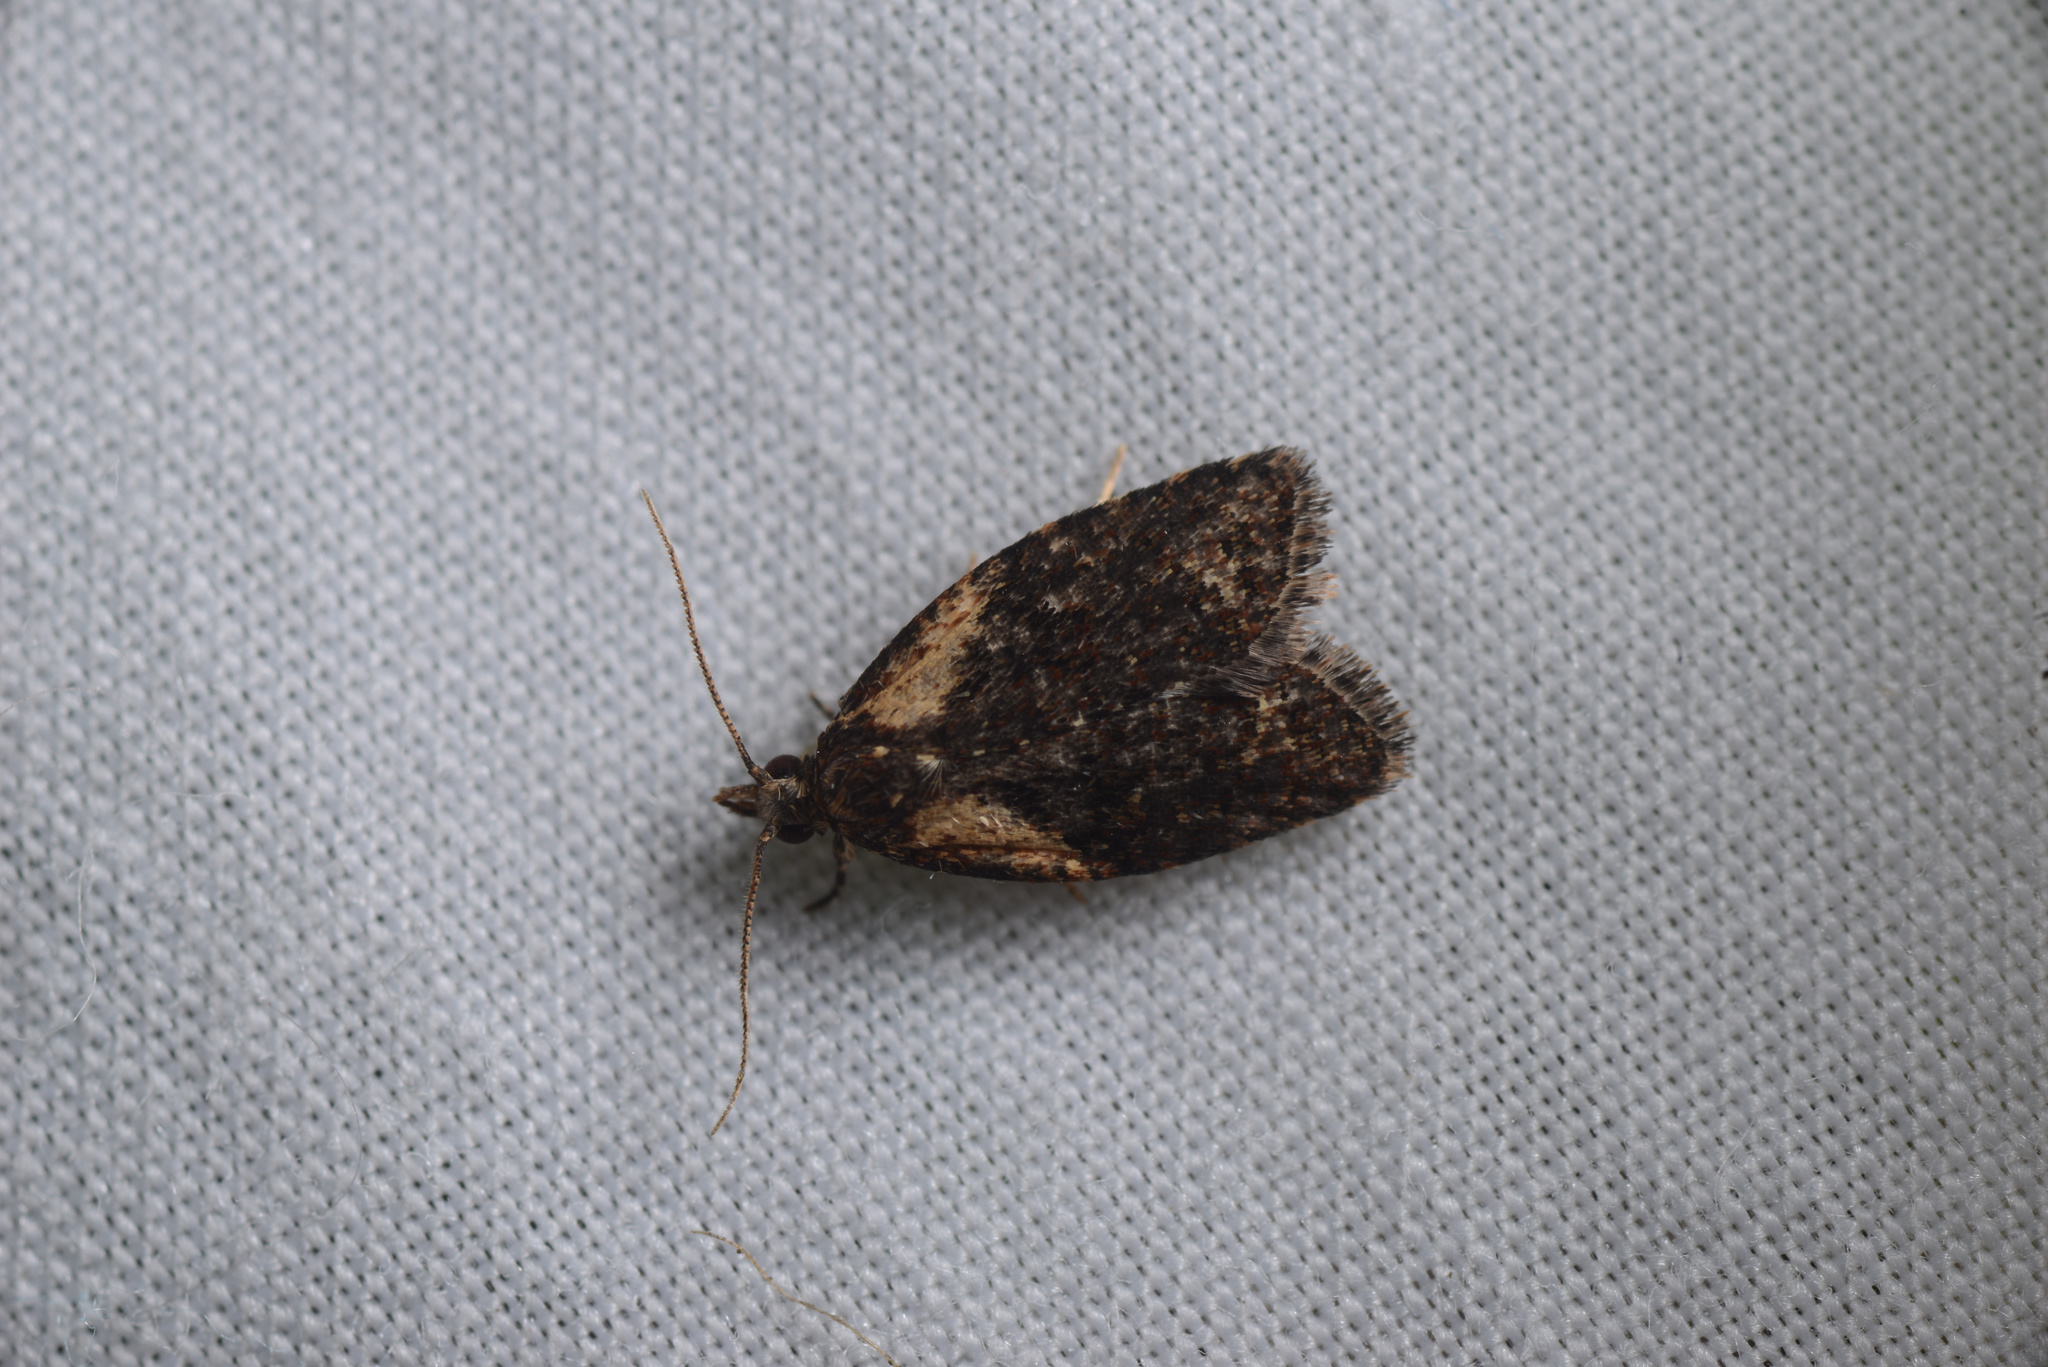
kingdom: Animalia
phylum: Arthropoda
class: Insecta
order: Lepidoptera
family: Tortricidae
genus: Capua
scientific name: Capua intractana
